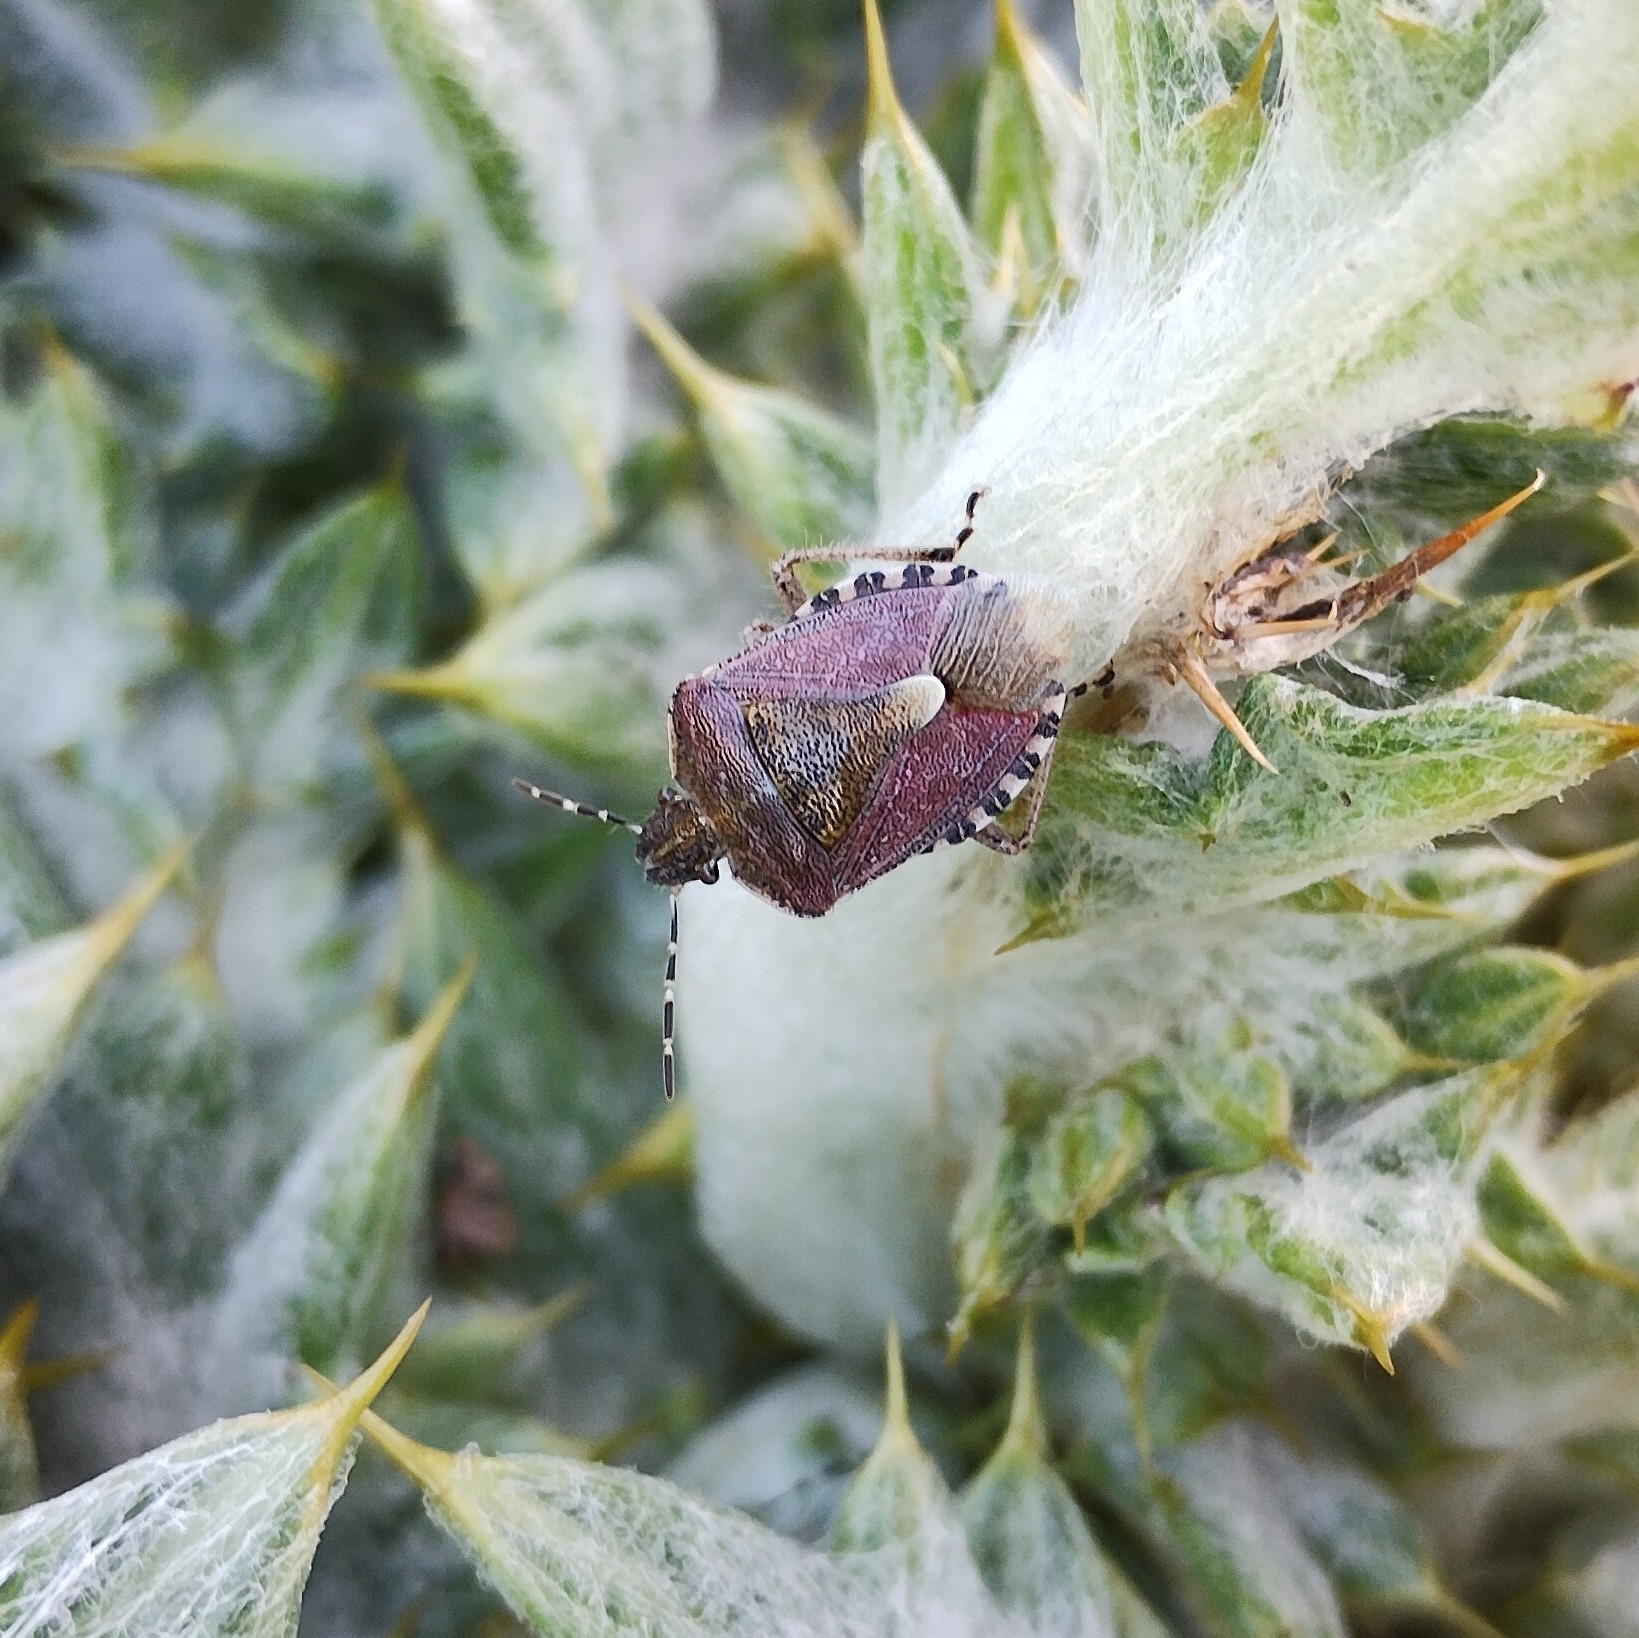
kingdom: Animalia
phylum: Arthropoda
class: Insecta
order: Hemiptera
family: Pentatomidae
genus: Dolycoris
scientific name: Dolycoris baccarum
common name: Sloe bug
